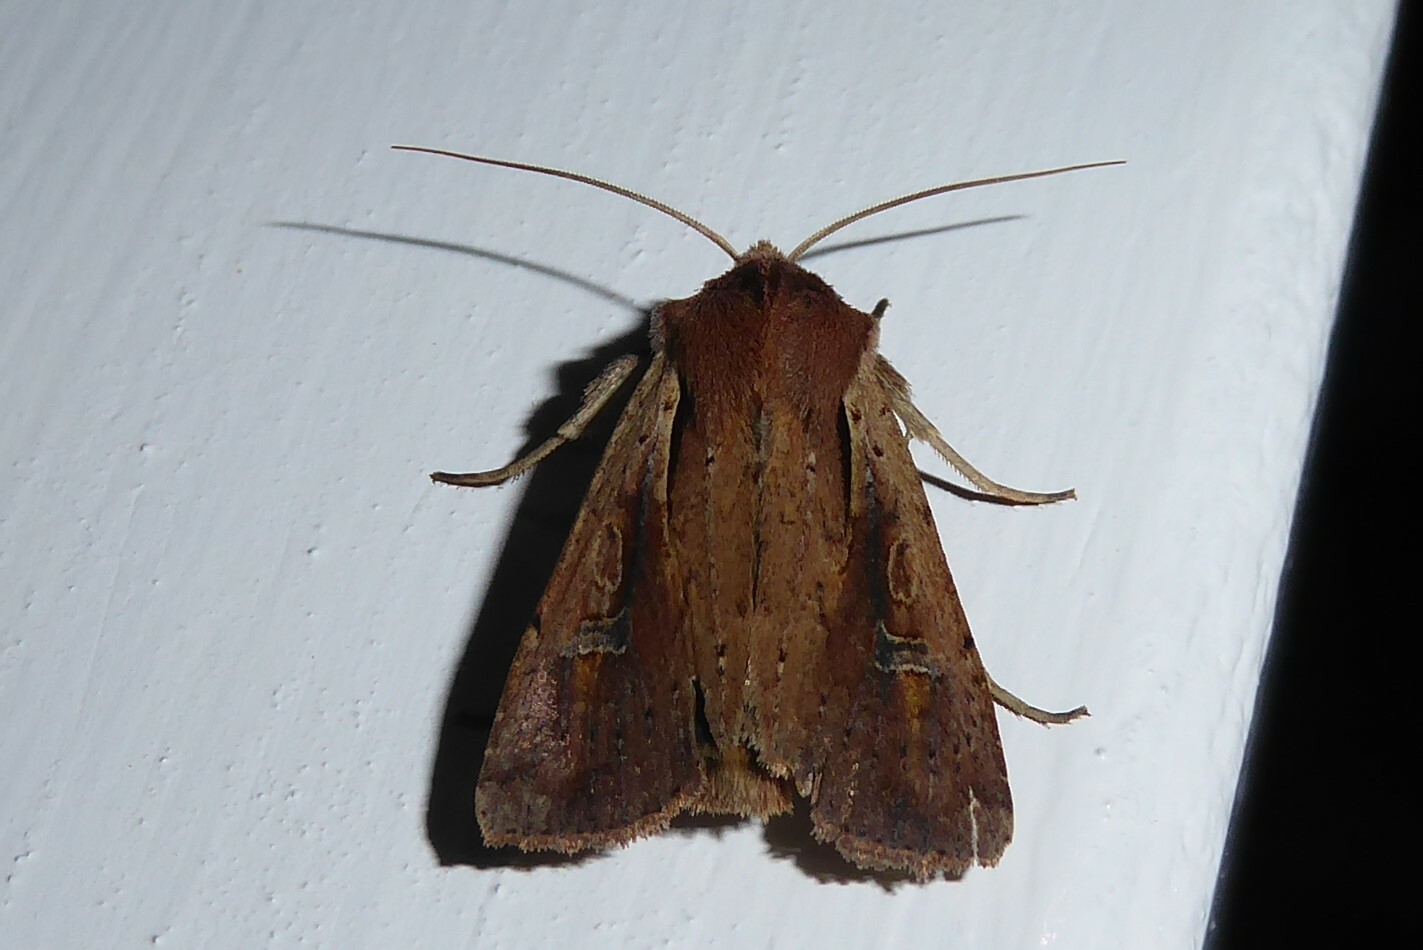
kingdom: Animalia
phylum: Arthropoda
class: Insecta
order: Lepidoptera
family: Noctuidae
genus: Ichneutica
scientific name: Ichneutica atristriga
